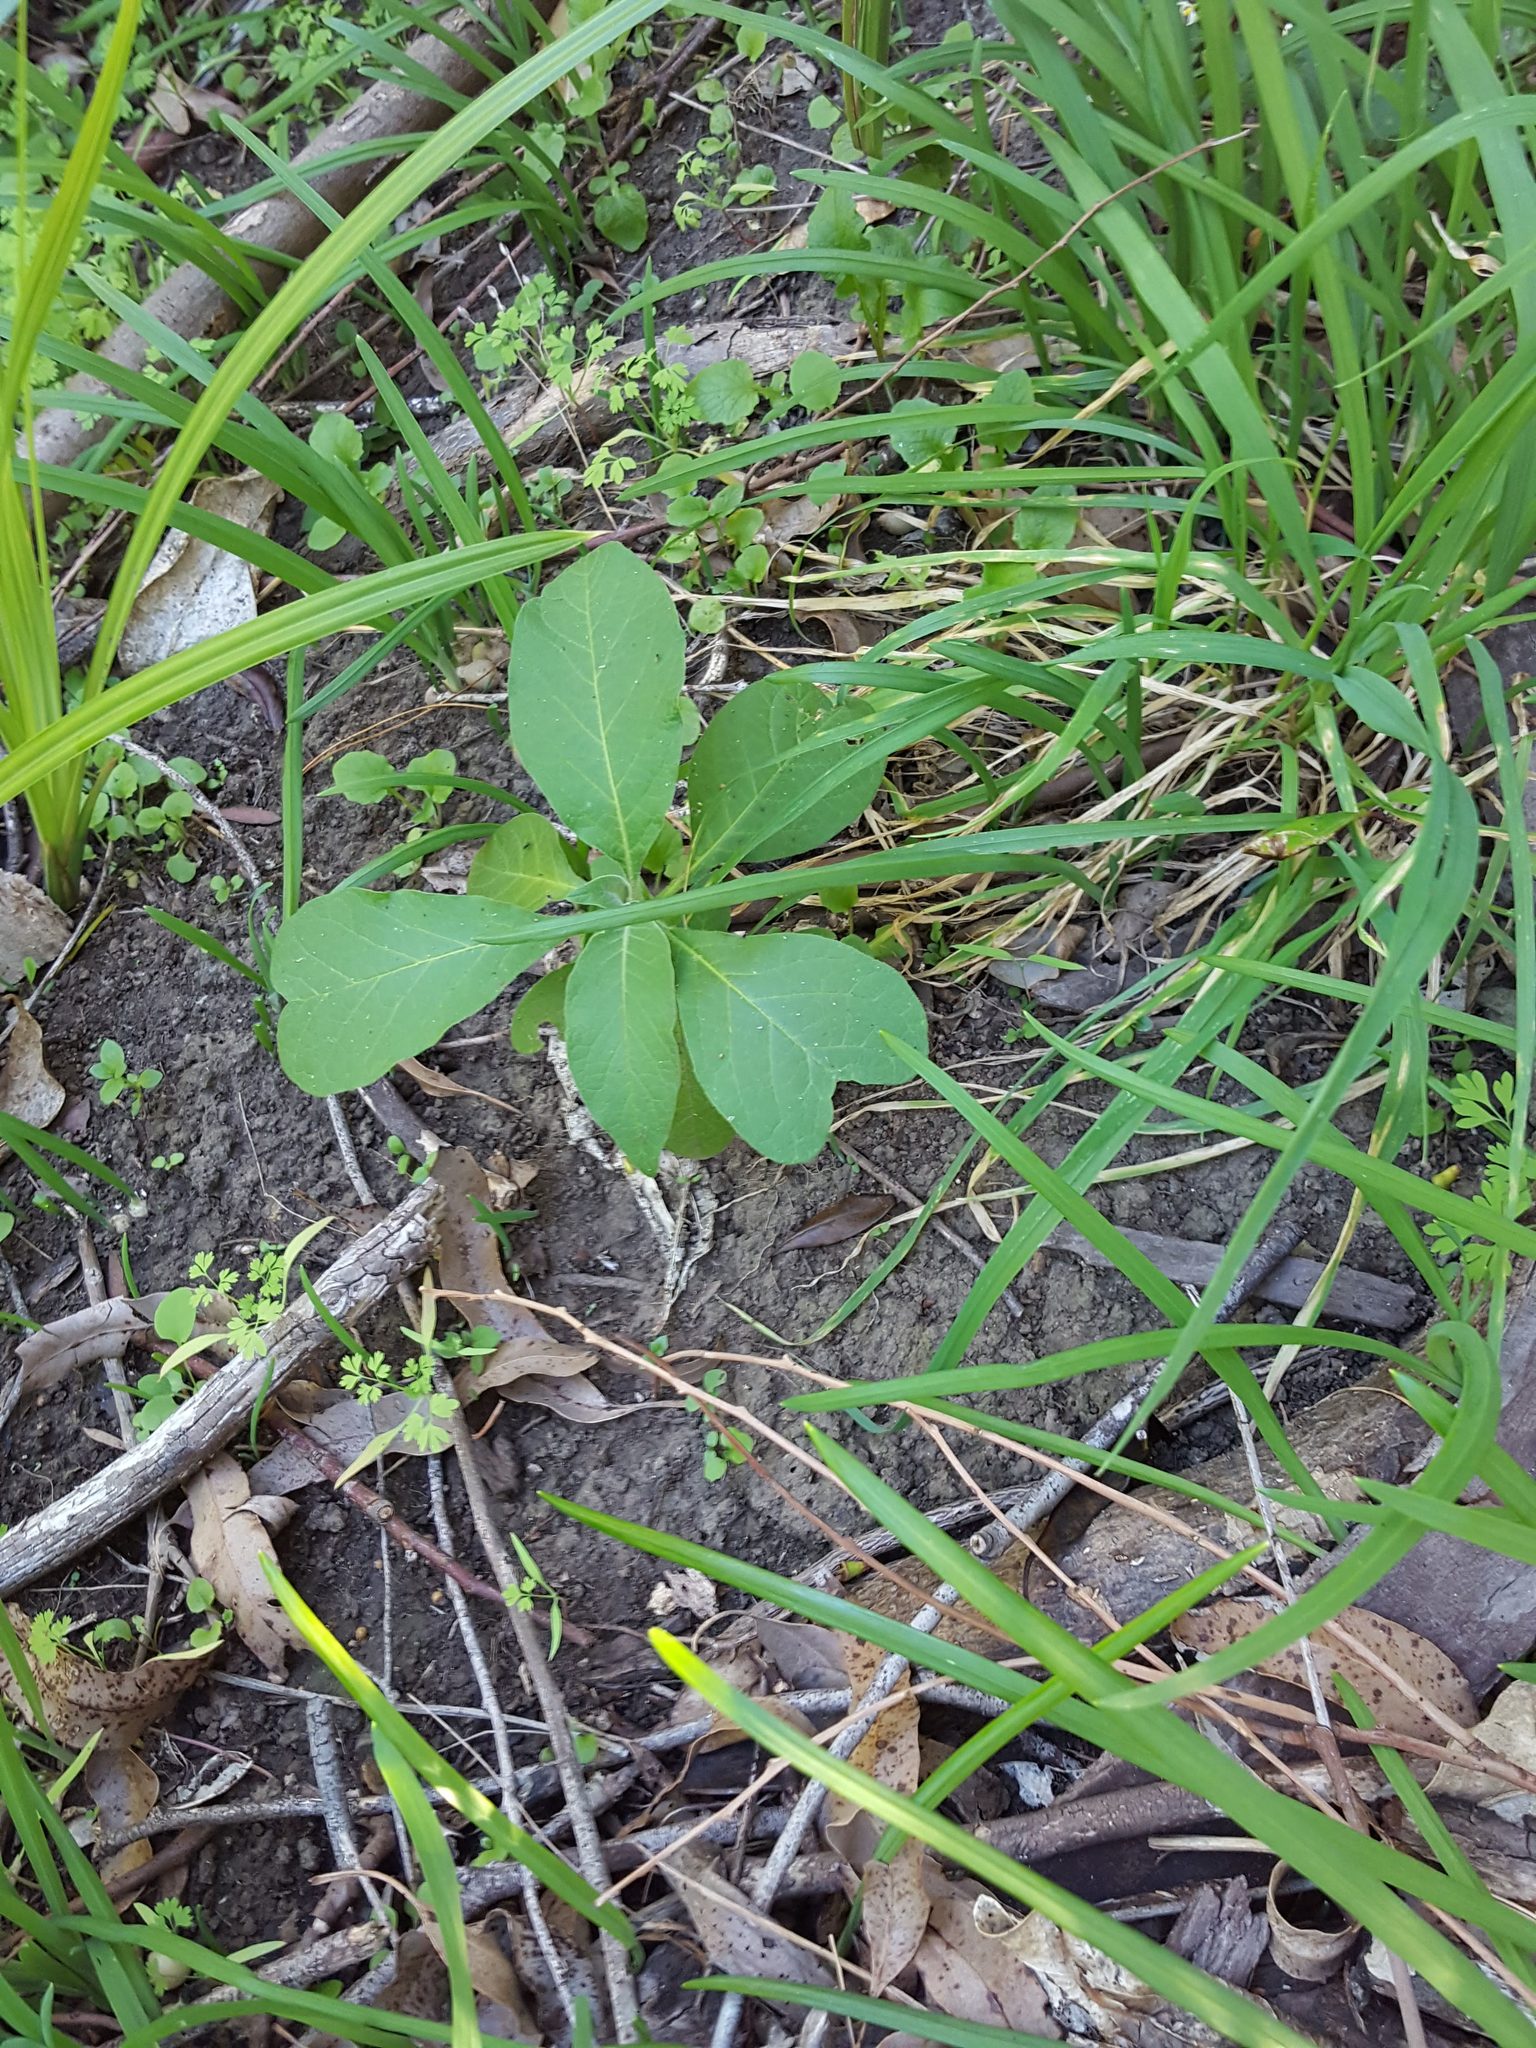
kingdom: Plantae
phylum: Tracheophyta
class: Magnoliopsida
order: Solanales
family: Solanaceae
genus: Solanum
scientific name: Solanum mauritianum
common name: Earleaf nightshade
